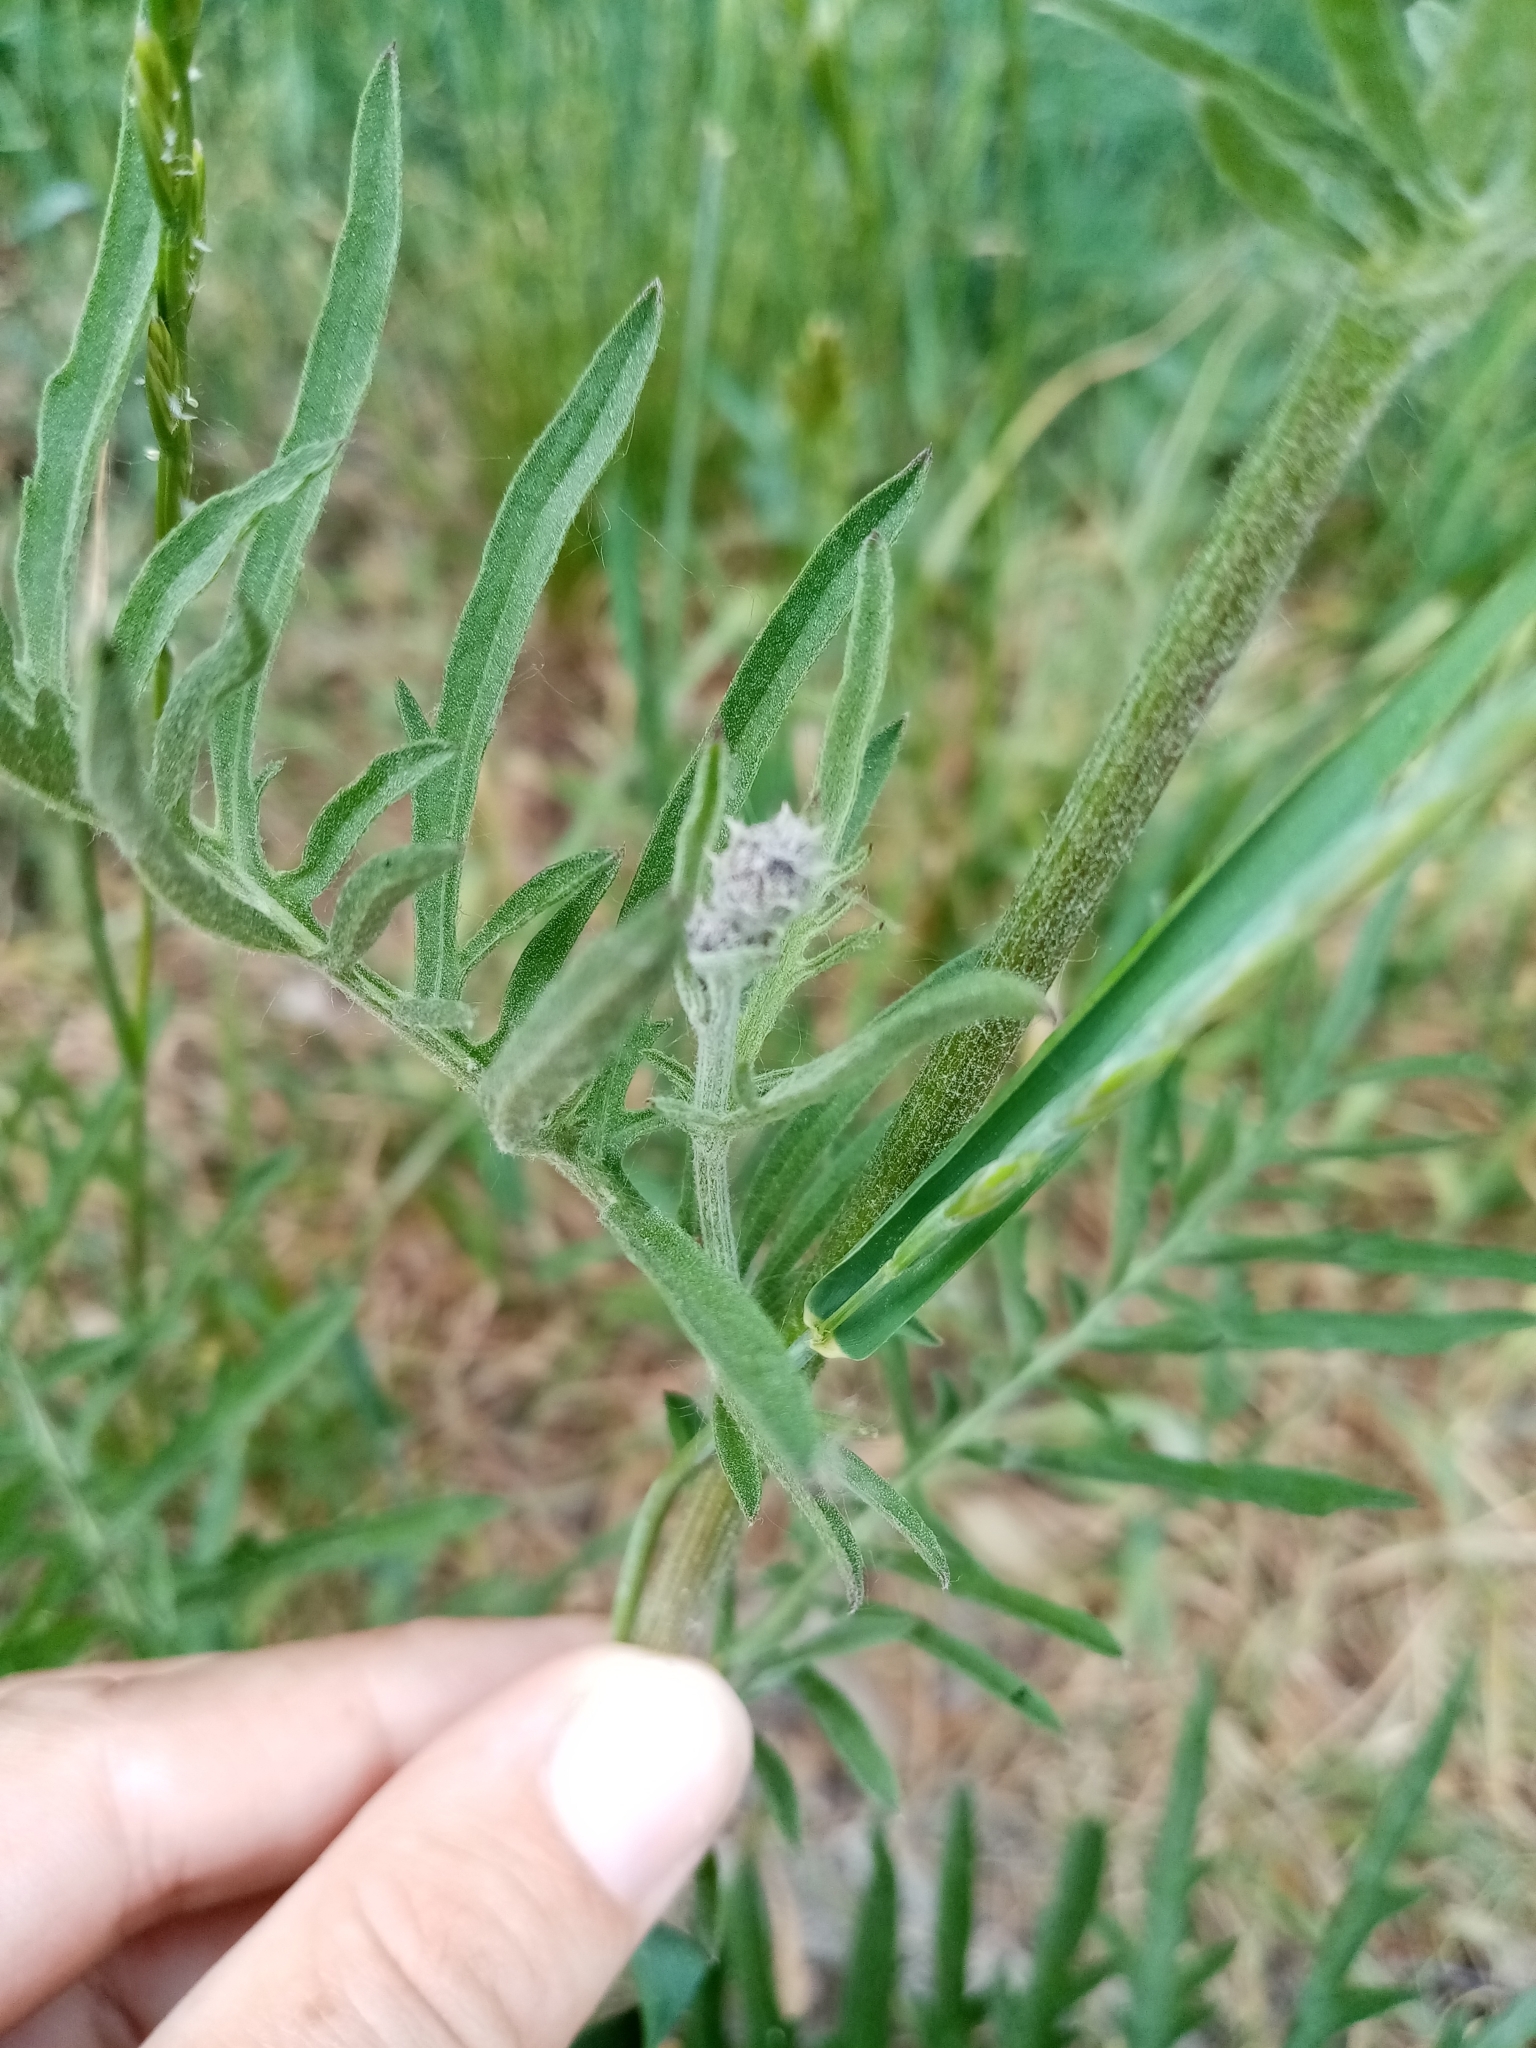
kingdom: Plantae
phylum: Tracheophyta
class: Magnoliopsida
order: Asterales
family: Asteraceae
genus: Centaurea
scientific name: Centaurea scabiosa
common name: Greater knapweed
